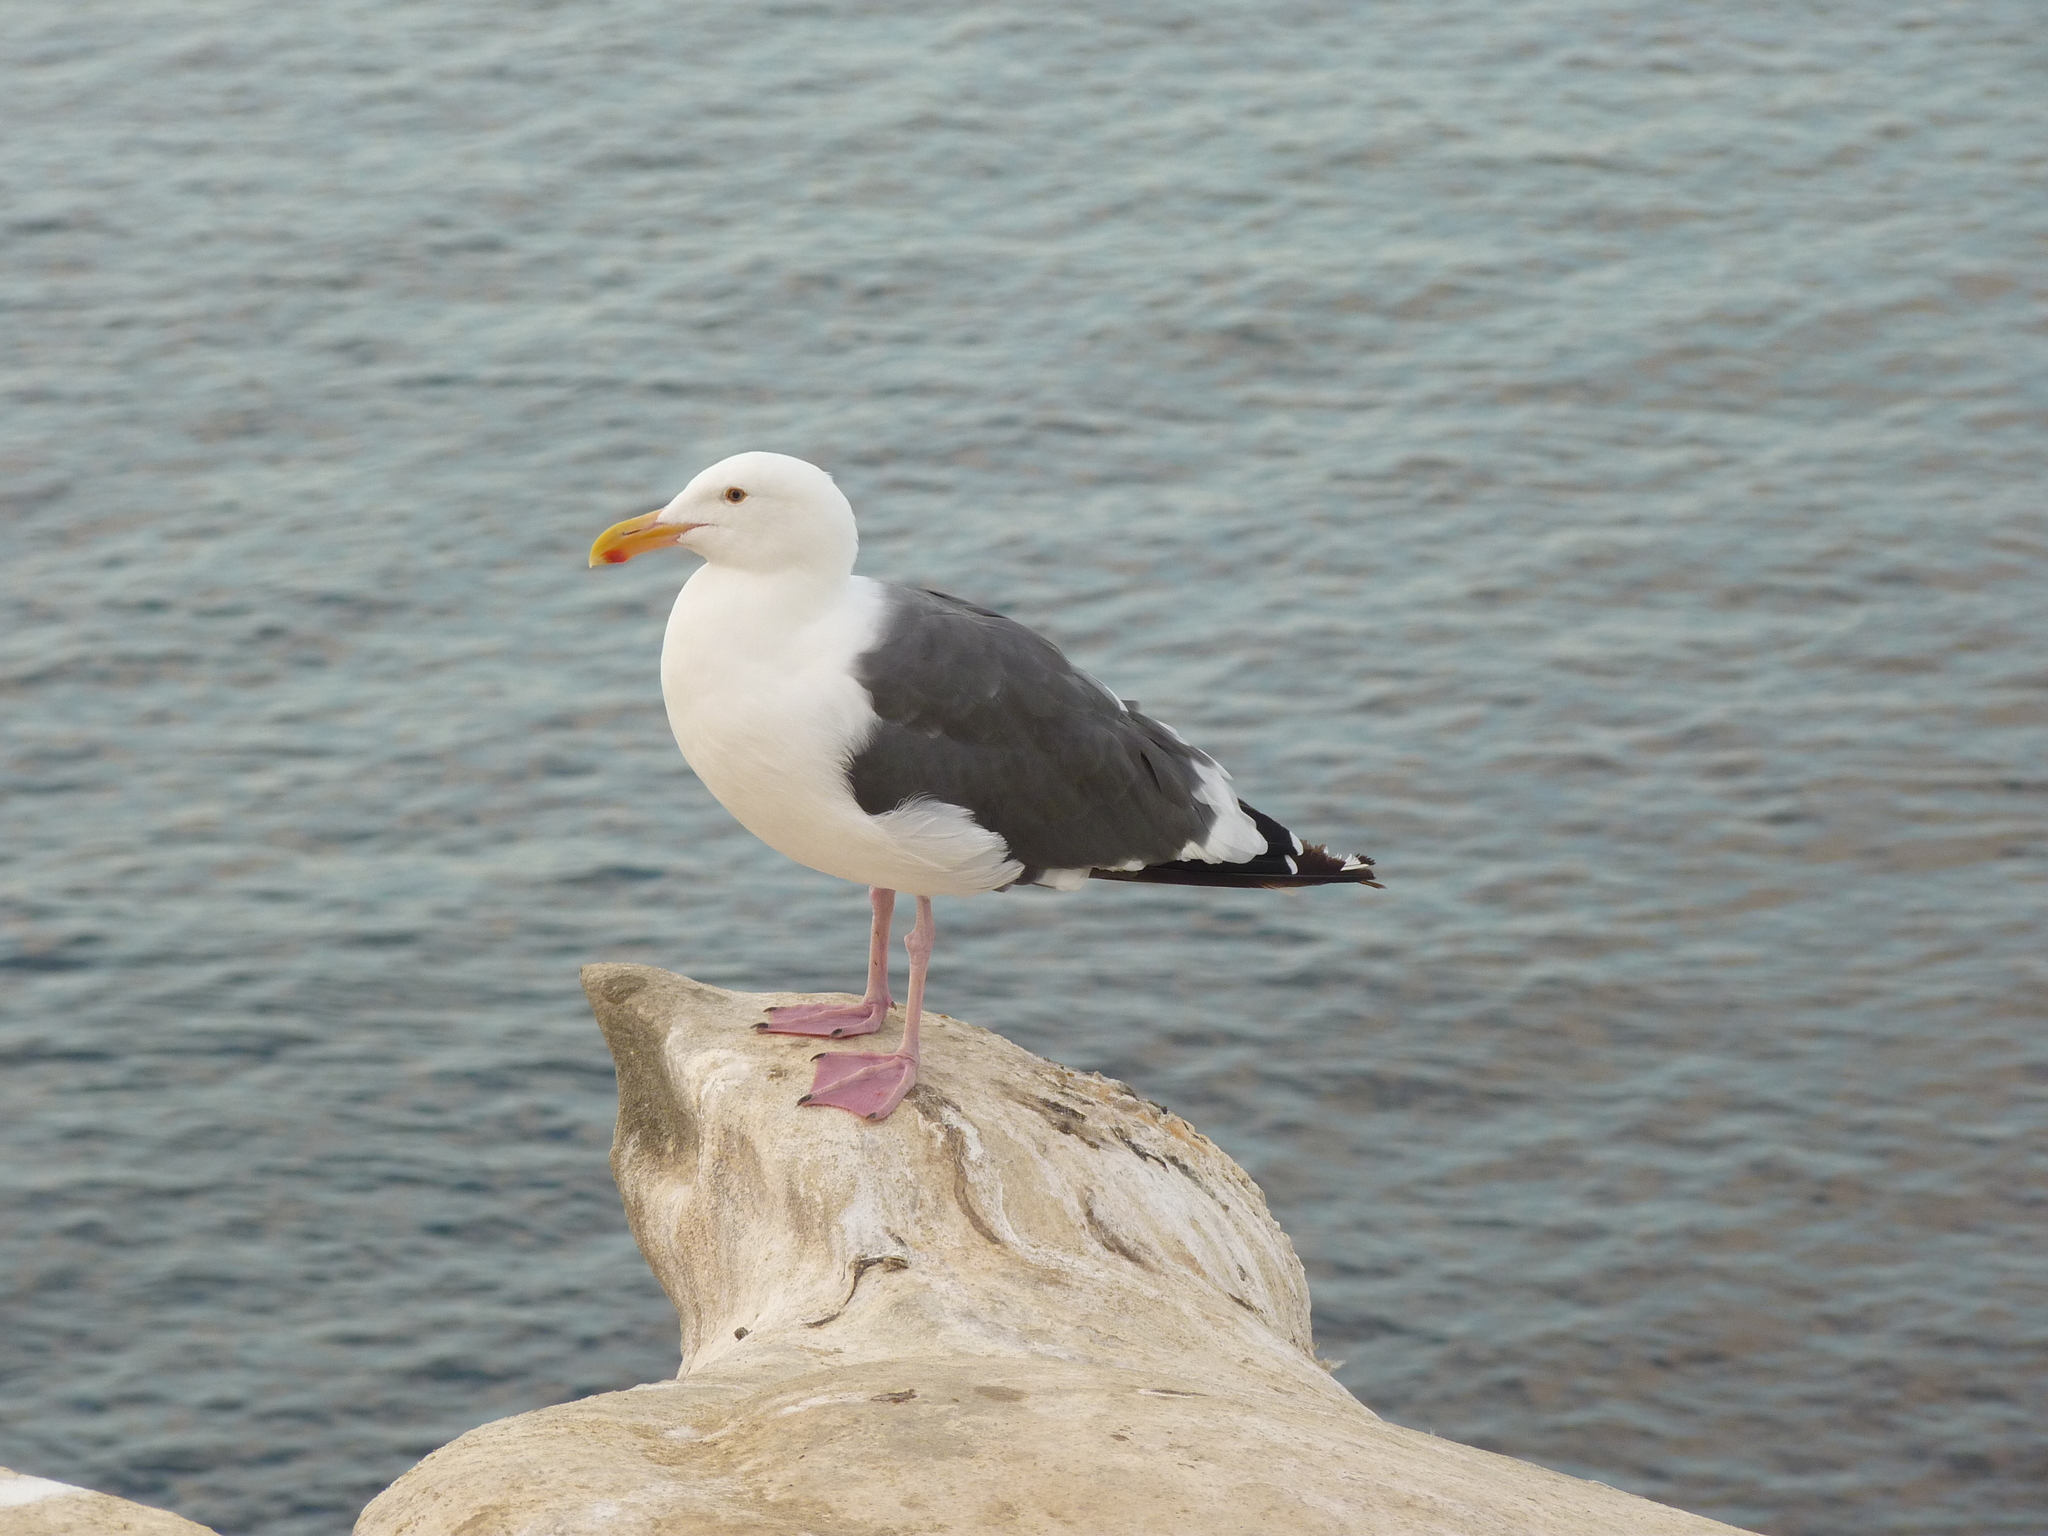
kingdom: Animalia
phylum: Chordata
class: Aves
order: Charadriiformes
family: Laridae
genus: Larus
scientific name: Larus occidentalis
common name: Western gull
